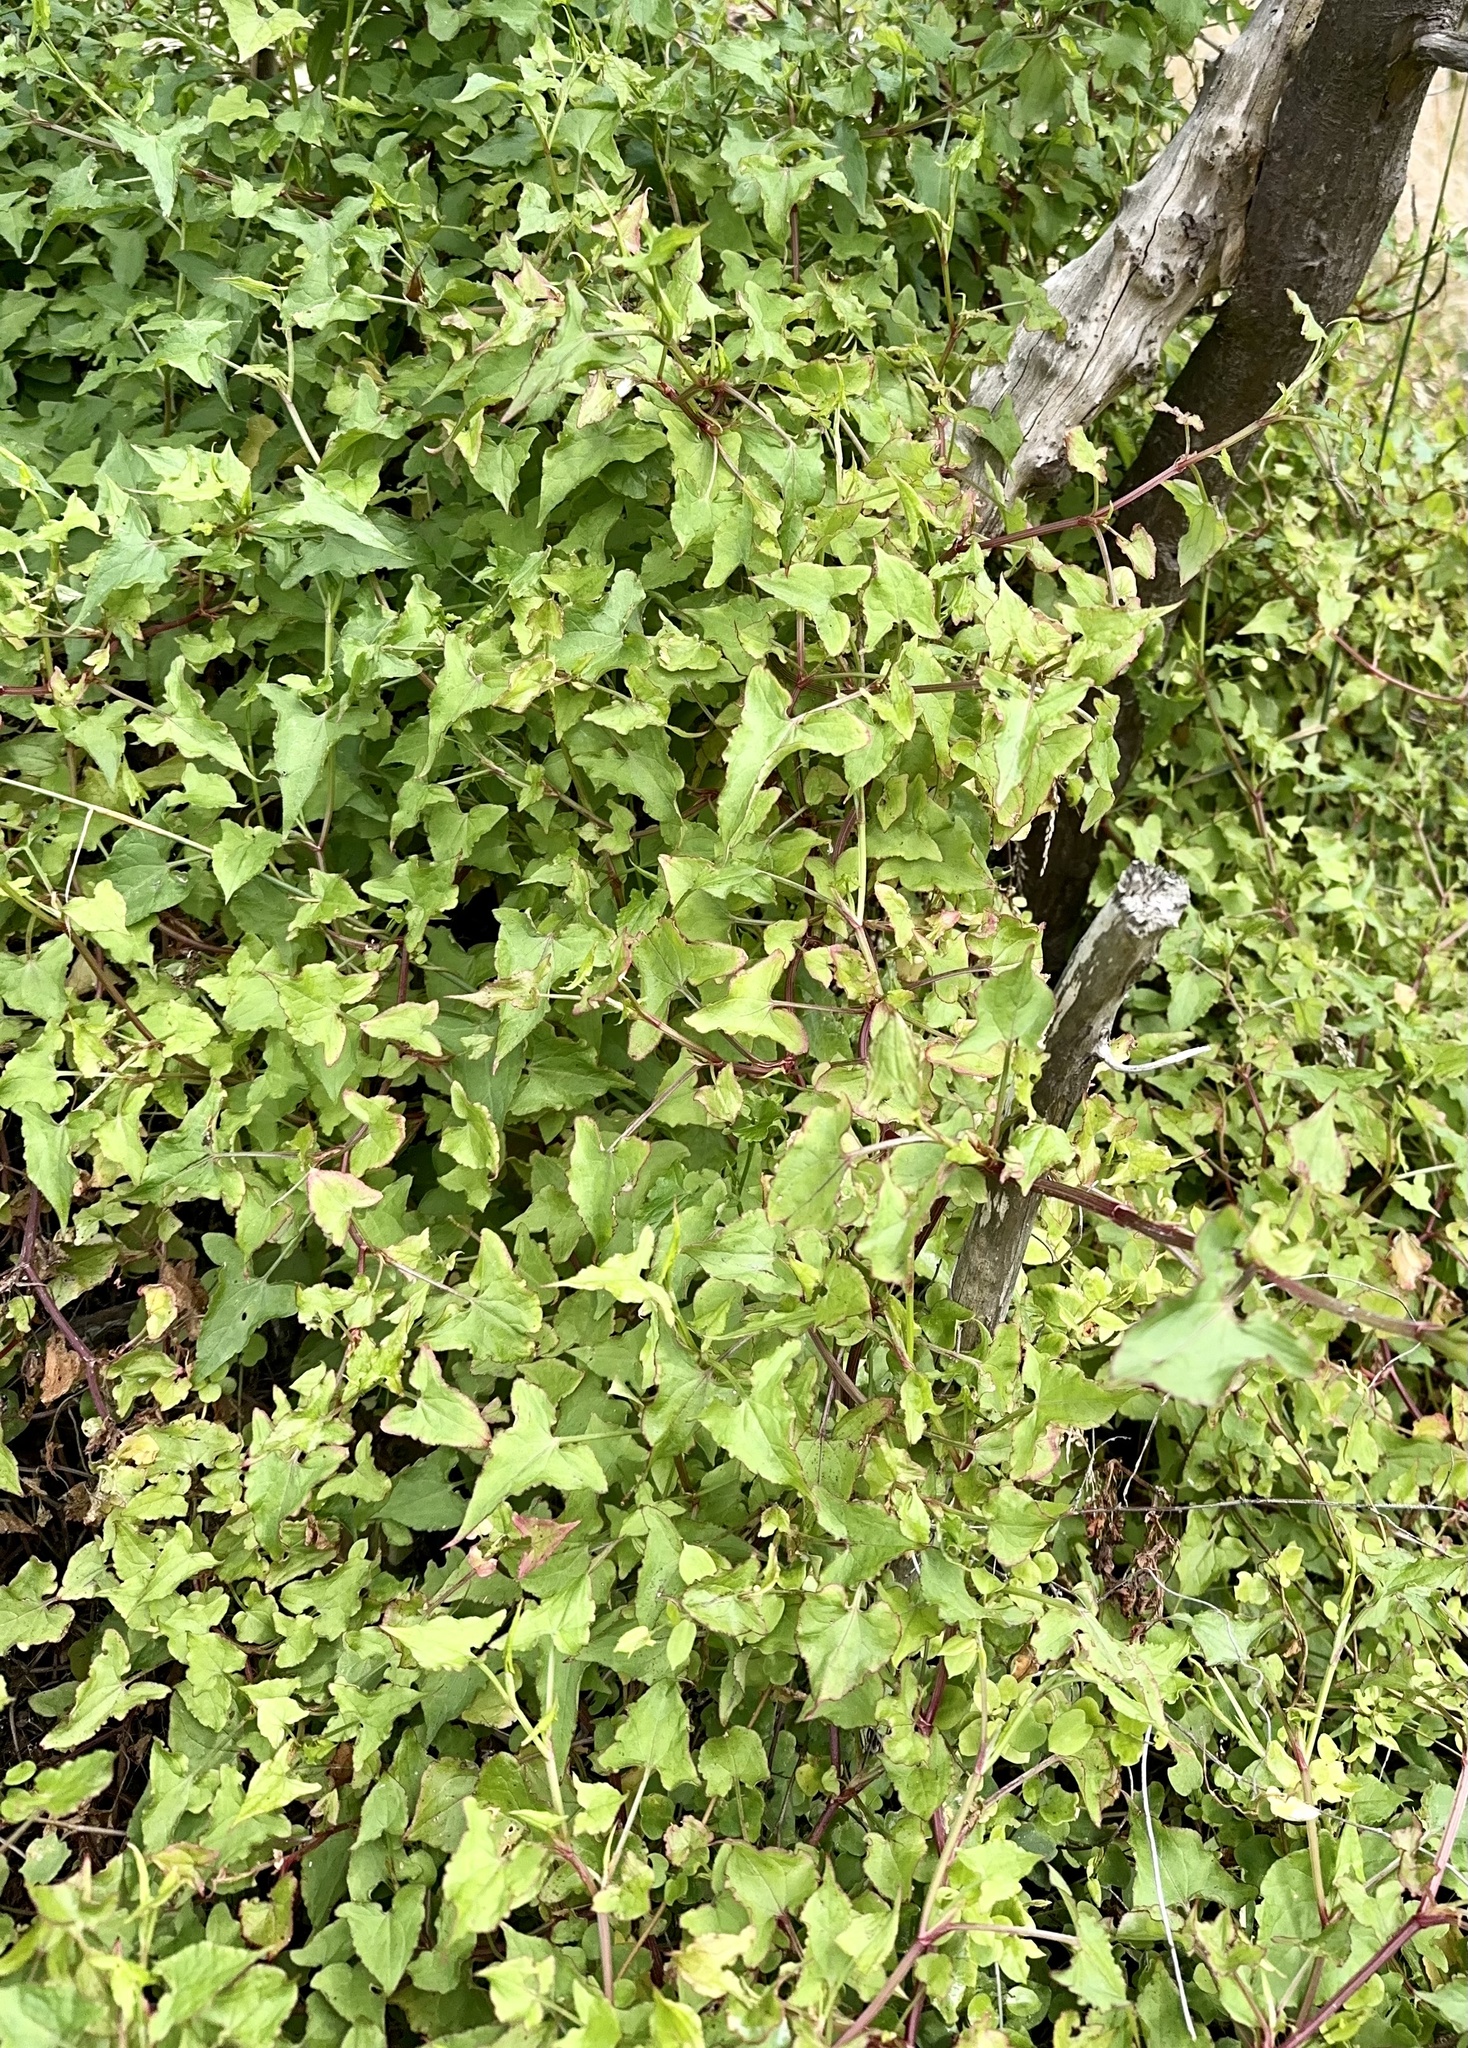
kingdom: Plantae
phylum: Tracheophyta
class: Magnoliopsida
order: Caryophyllales
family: Polygonaceae
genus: Rumex
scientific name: Rumex sagittatus
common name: Climbing dock
